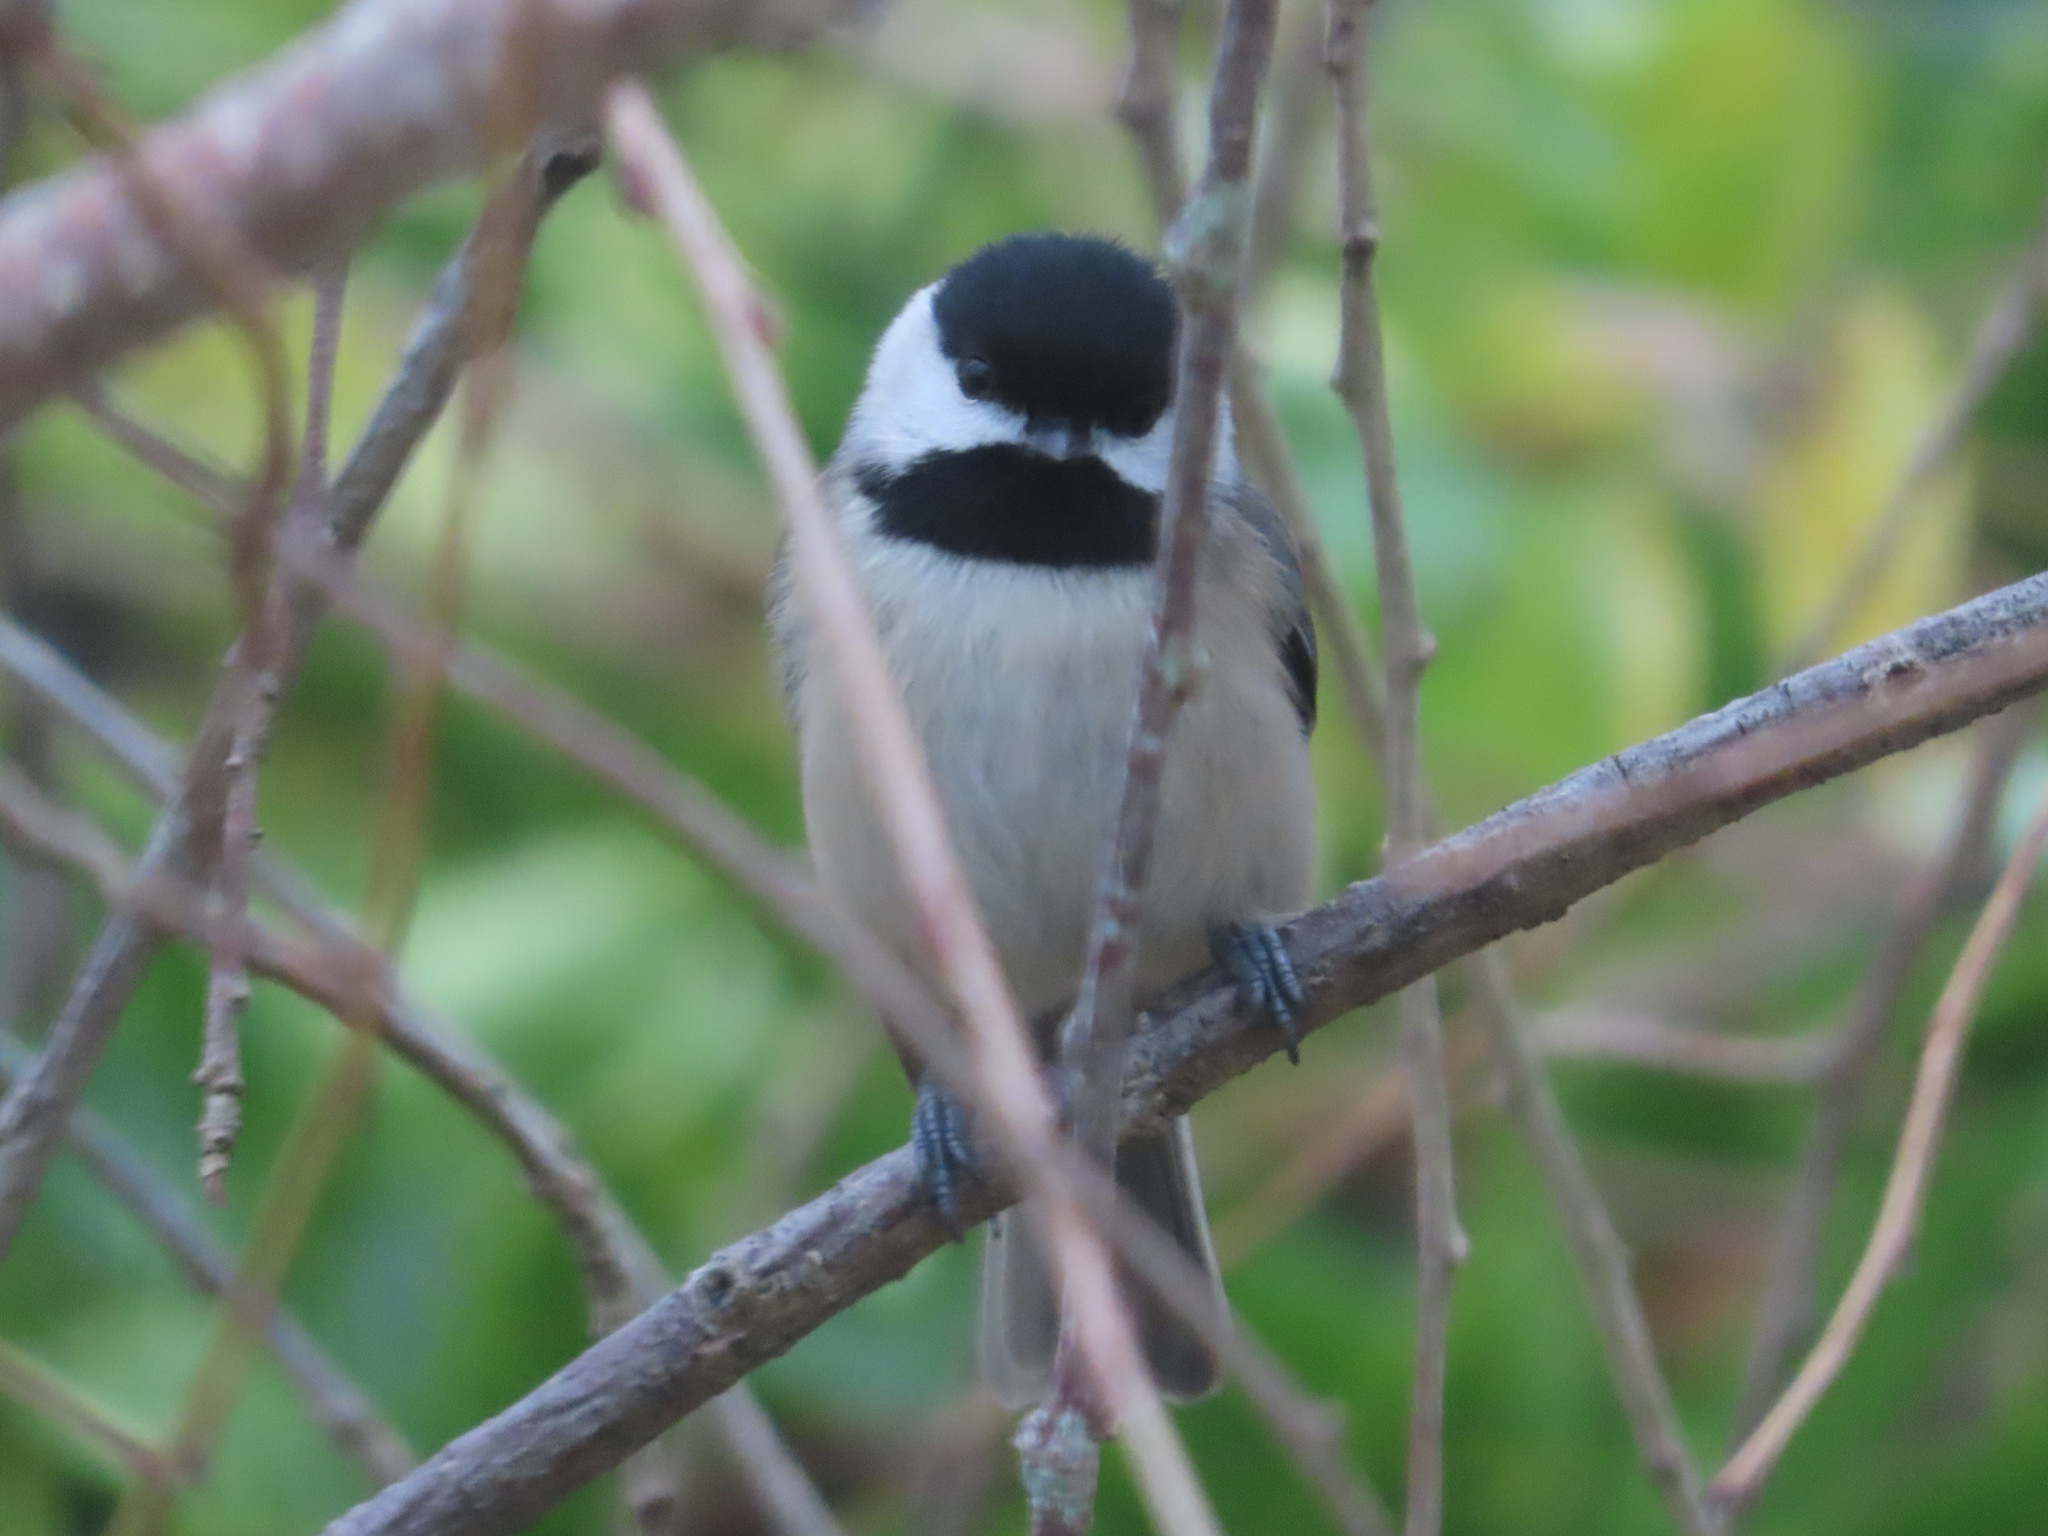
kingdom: Animalia
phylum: Chordata
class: Aves
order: Passeriformes
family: Paridae
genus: Poecile
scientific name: Poecile carolinensis
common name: Carolina chickadee
